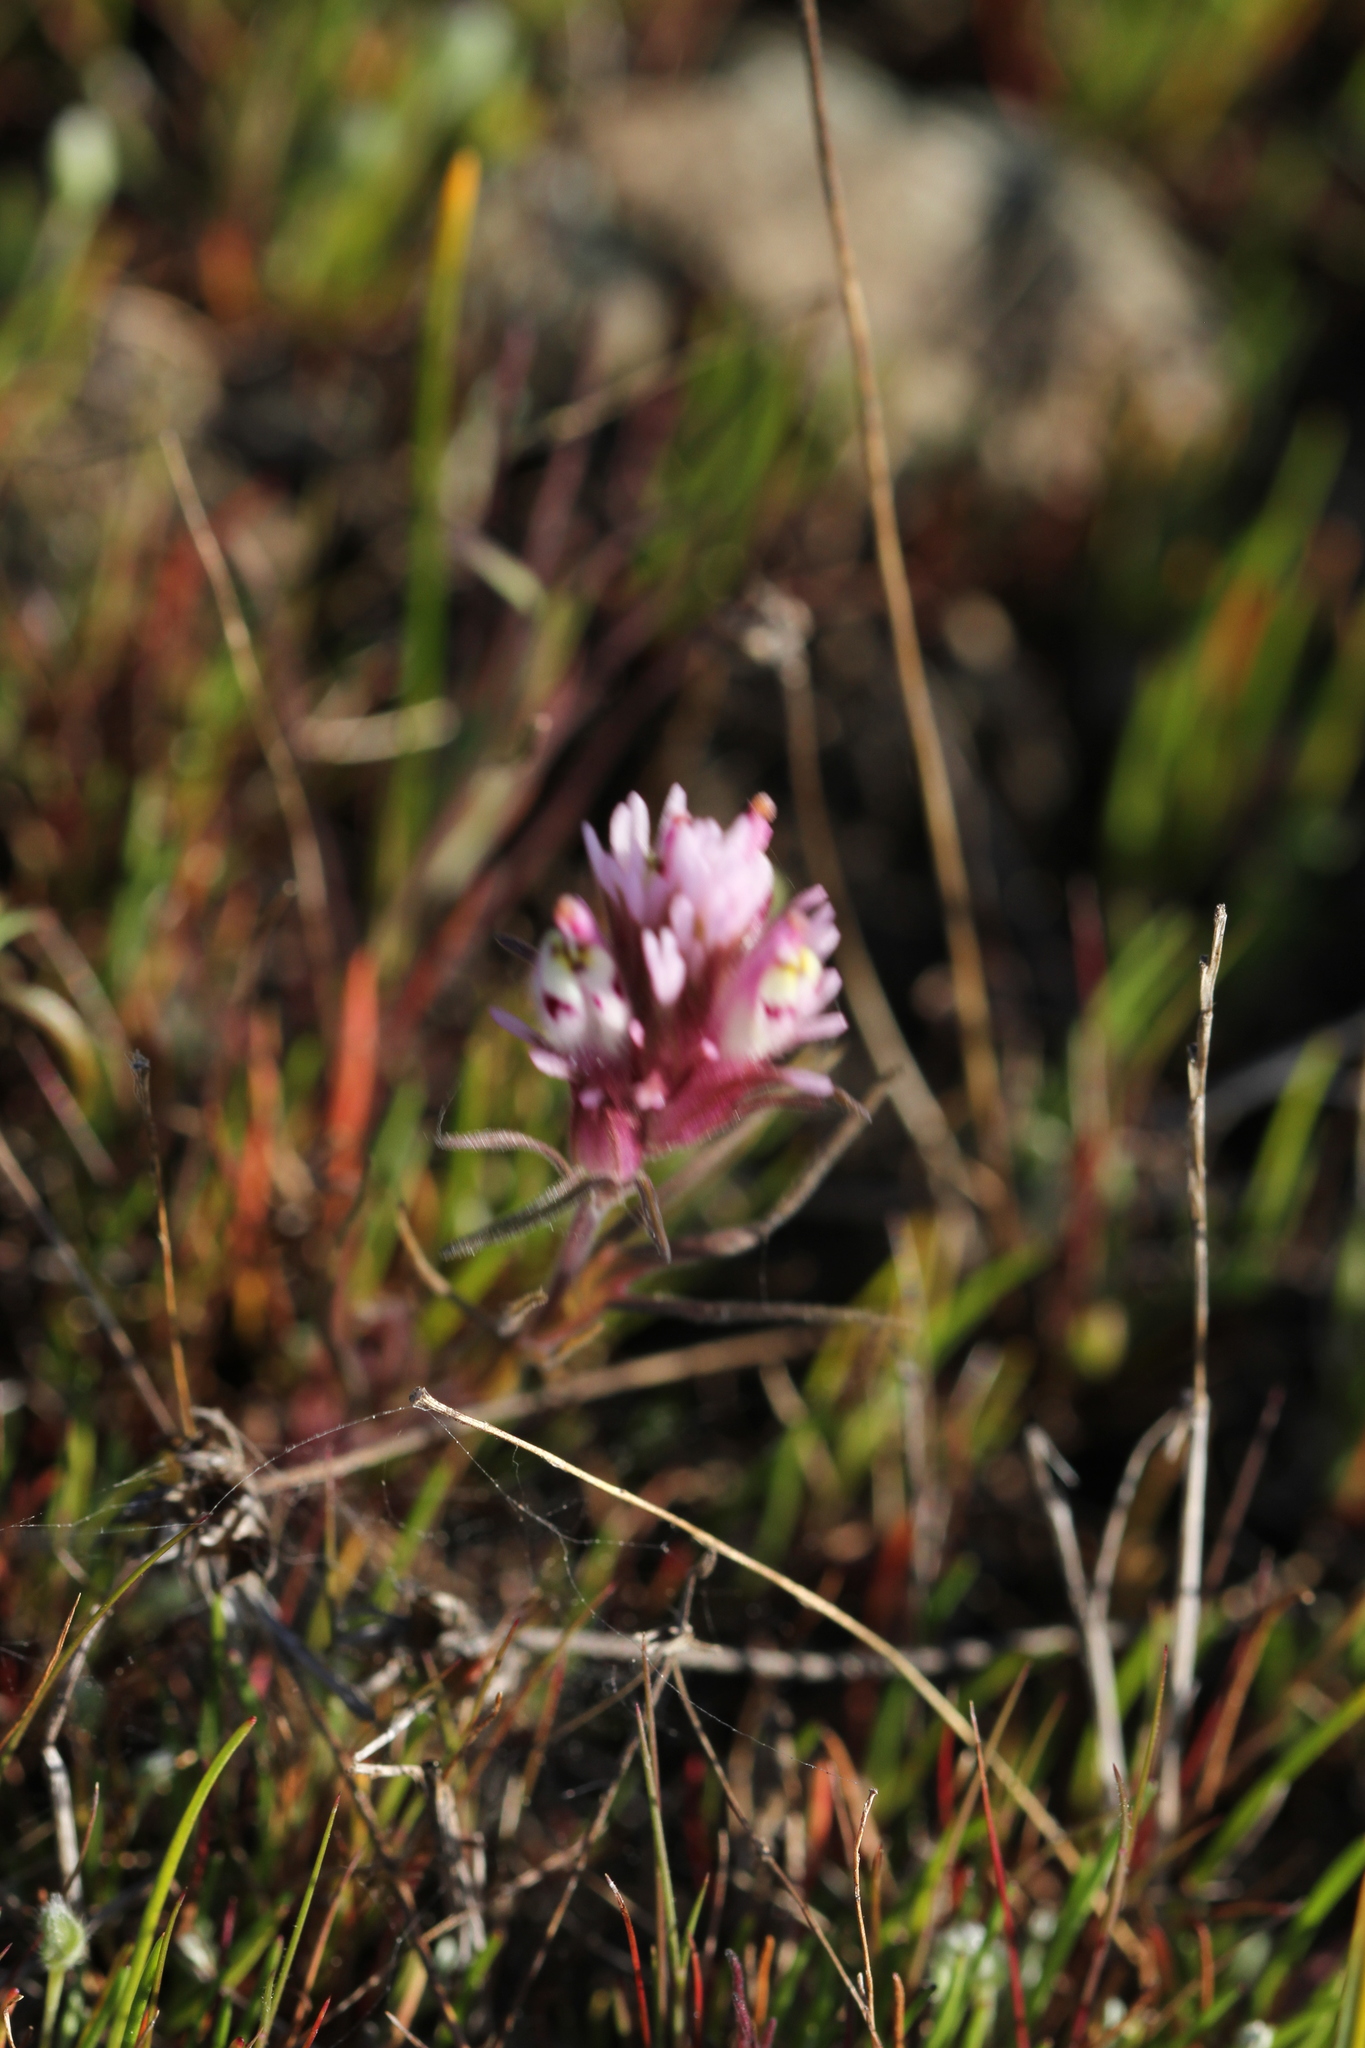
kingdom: Plantae
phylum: Tracheophyta
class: Magnoliopsida
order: Lamiales
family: Orobanchaceae
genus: Castilleja
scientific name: Castilleja densiflora
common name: Dense-flower indian paintbrush
